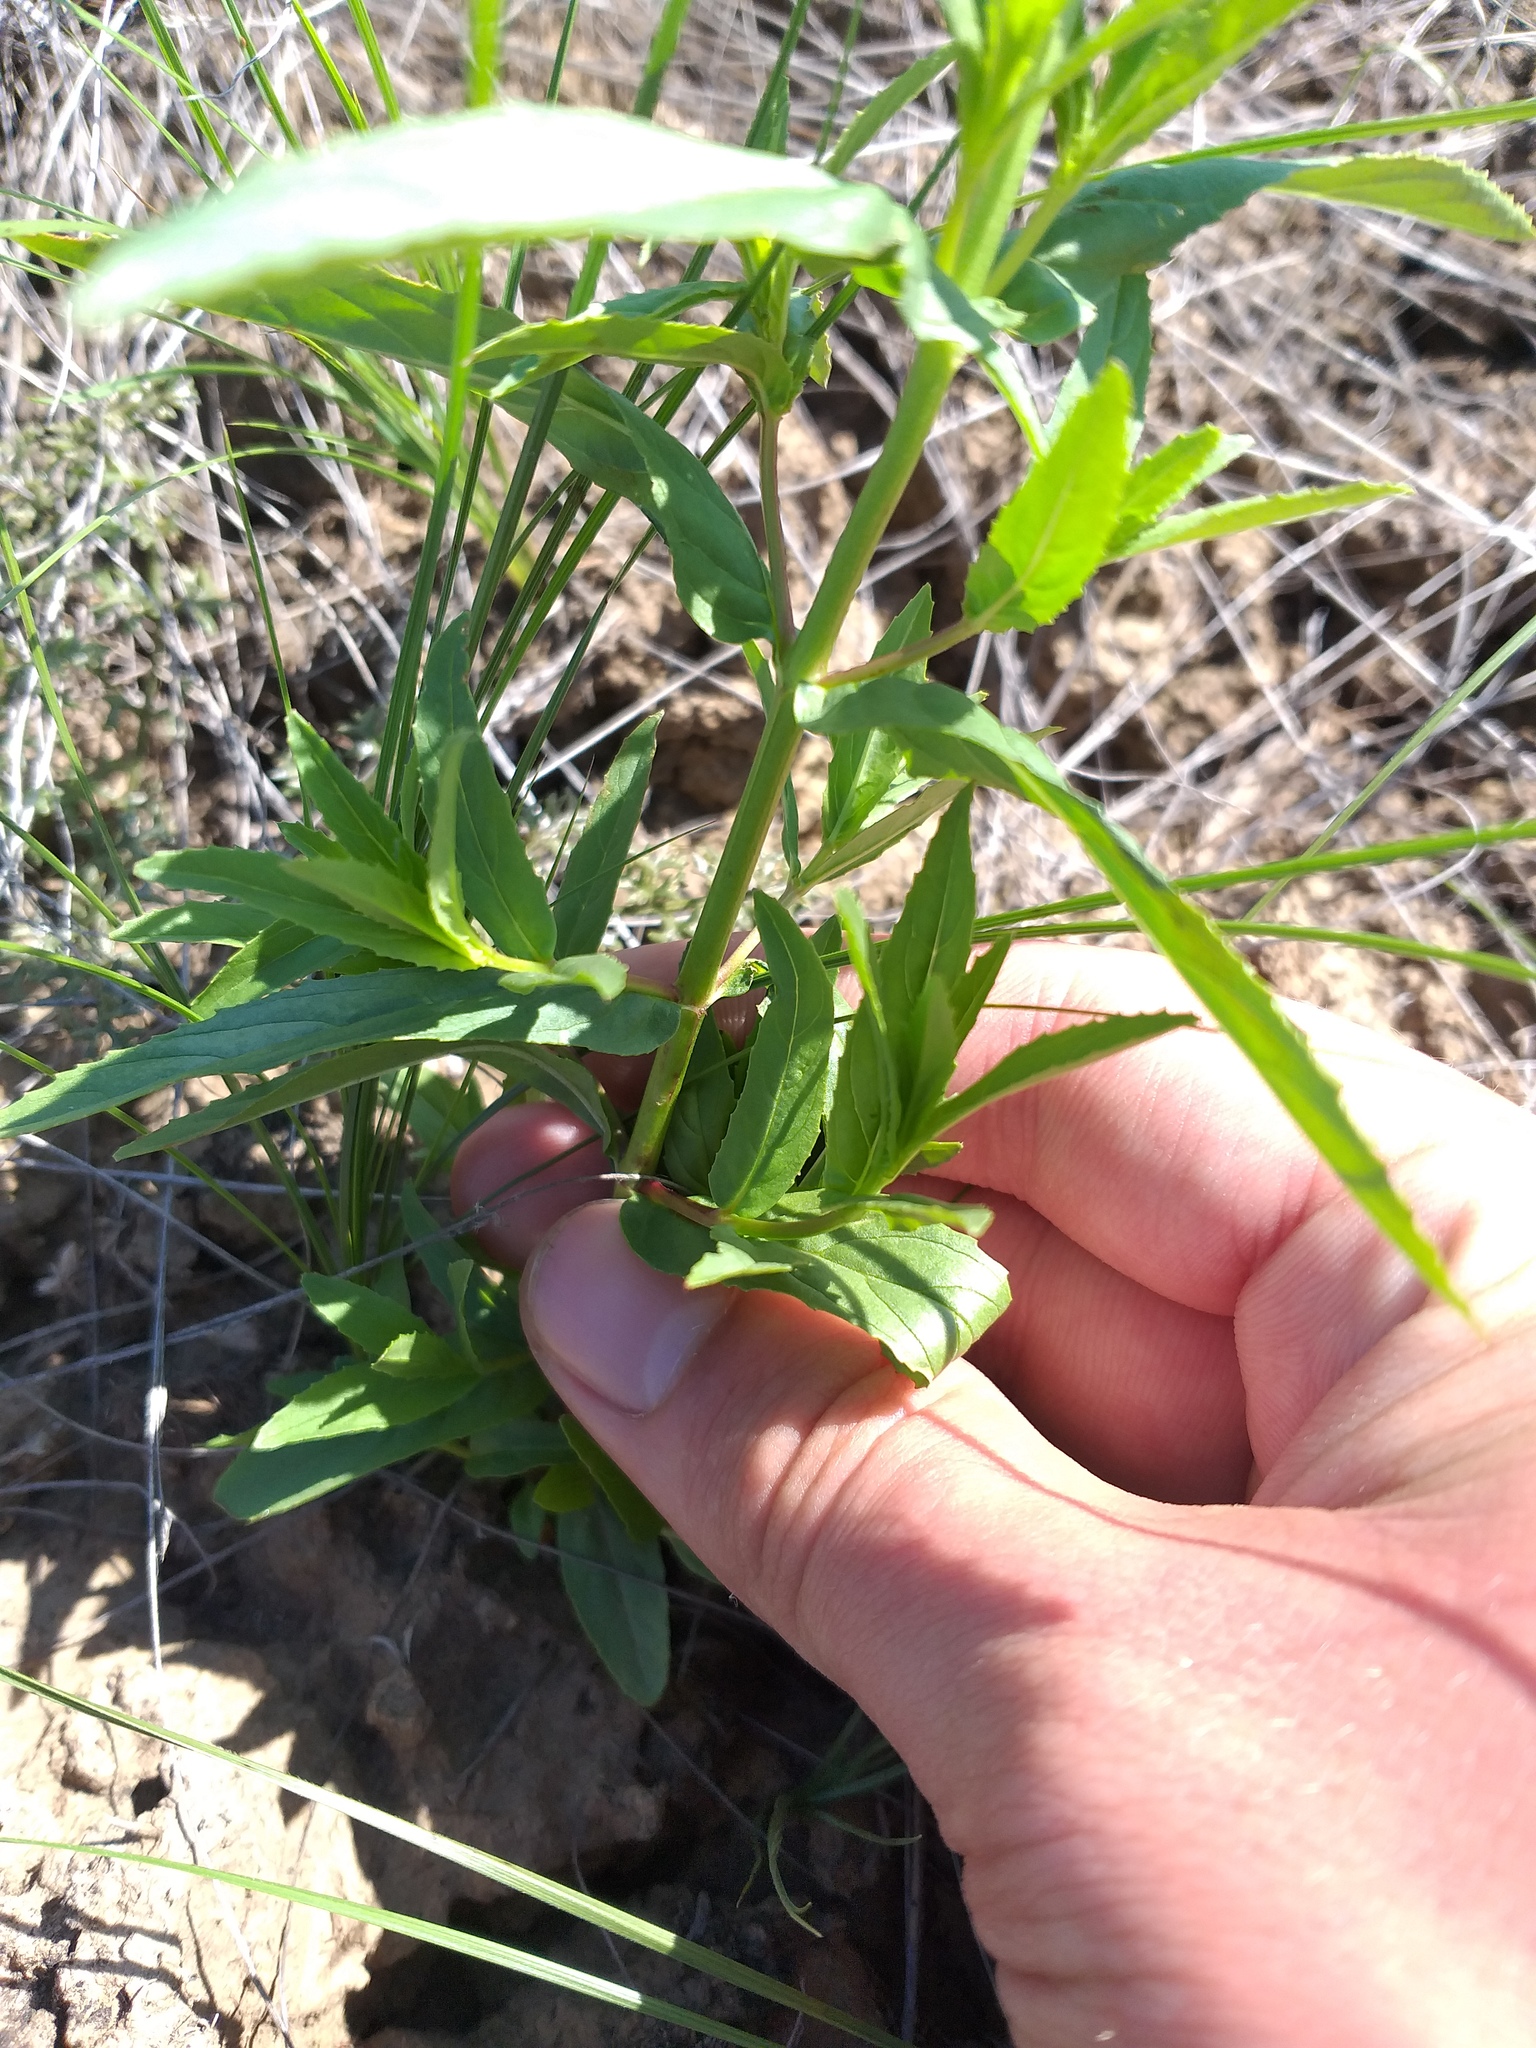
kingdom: Plantae
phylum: Tracheophyta
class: Magnoliopsida
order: Myrtales
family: Onagraceae
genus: Epilobium
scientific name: Epilobium tetragonum
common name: Square-stemmed willowherb
